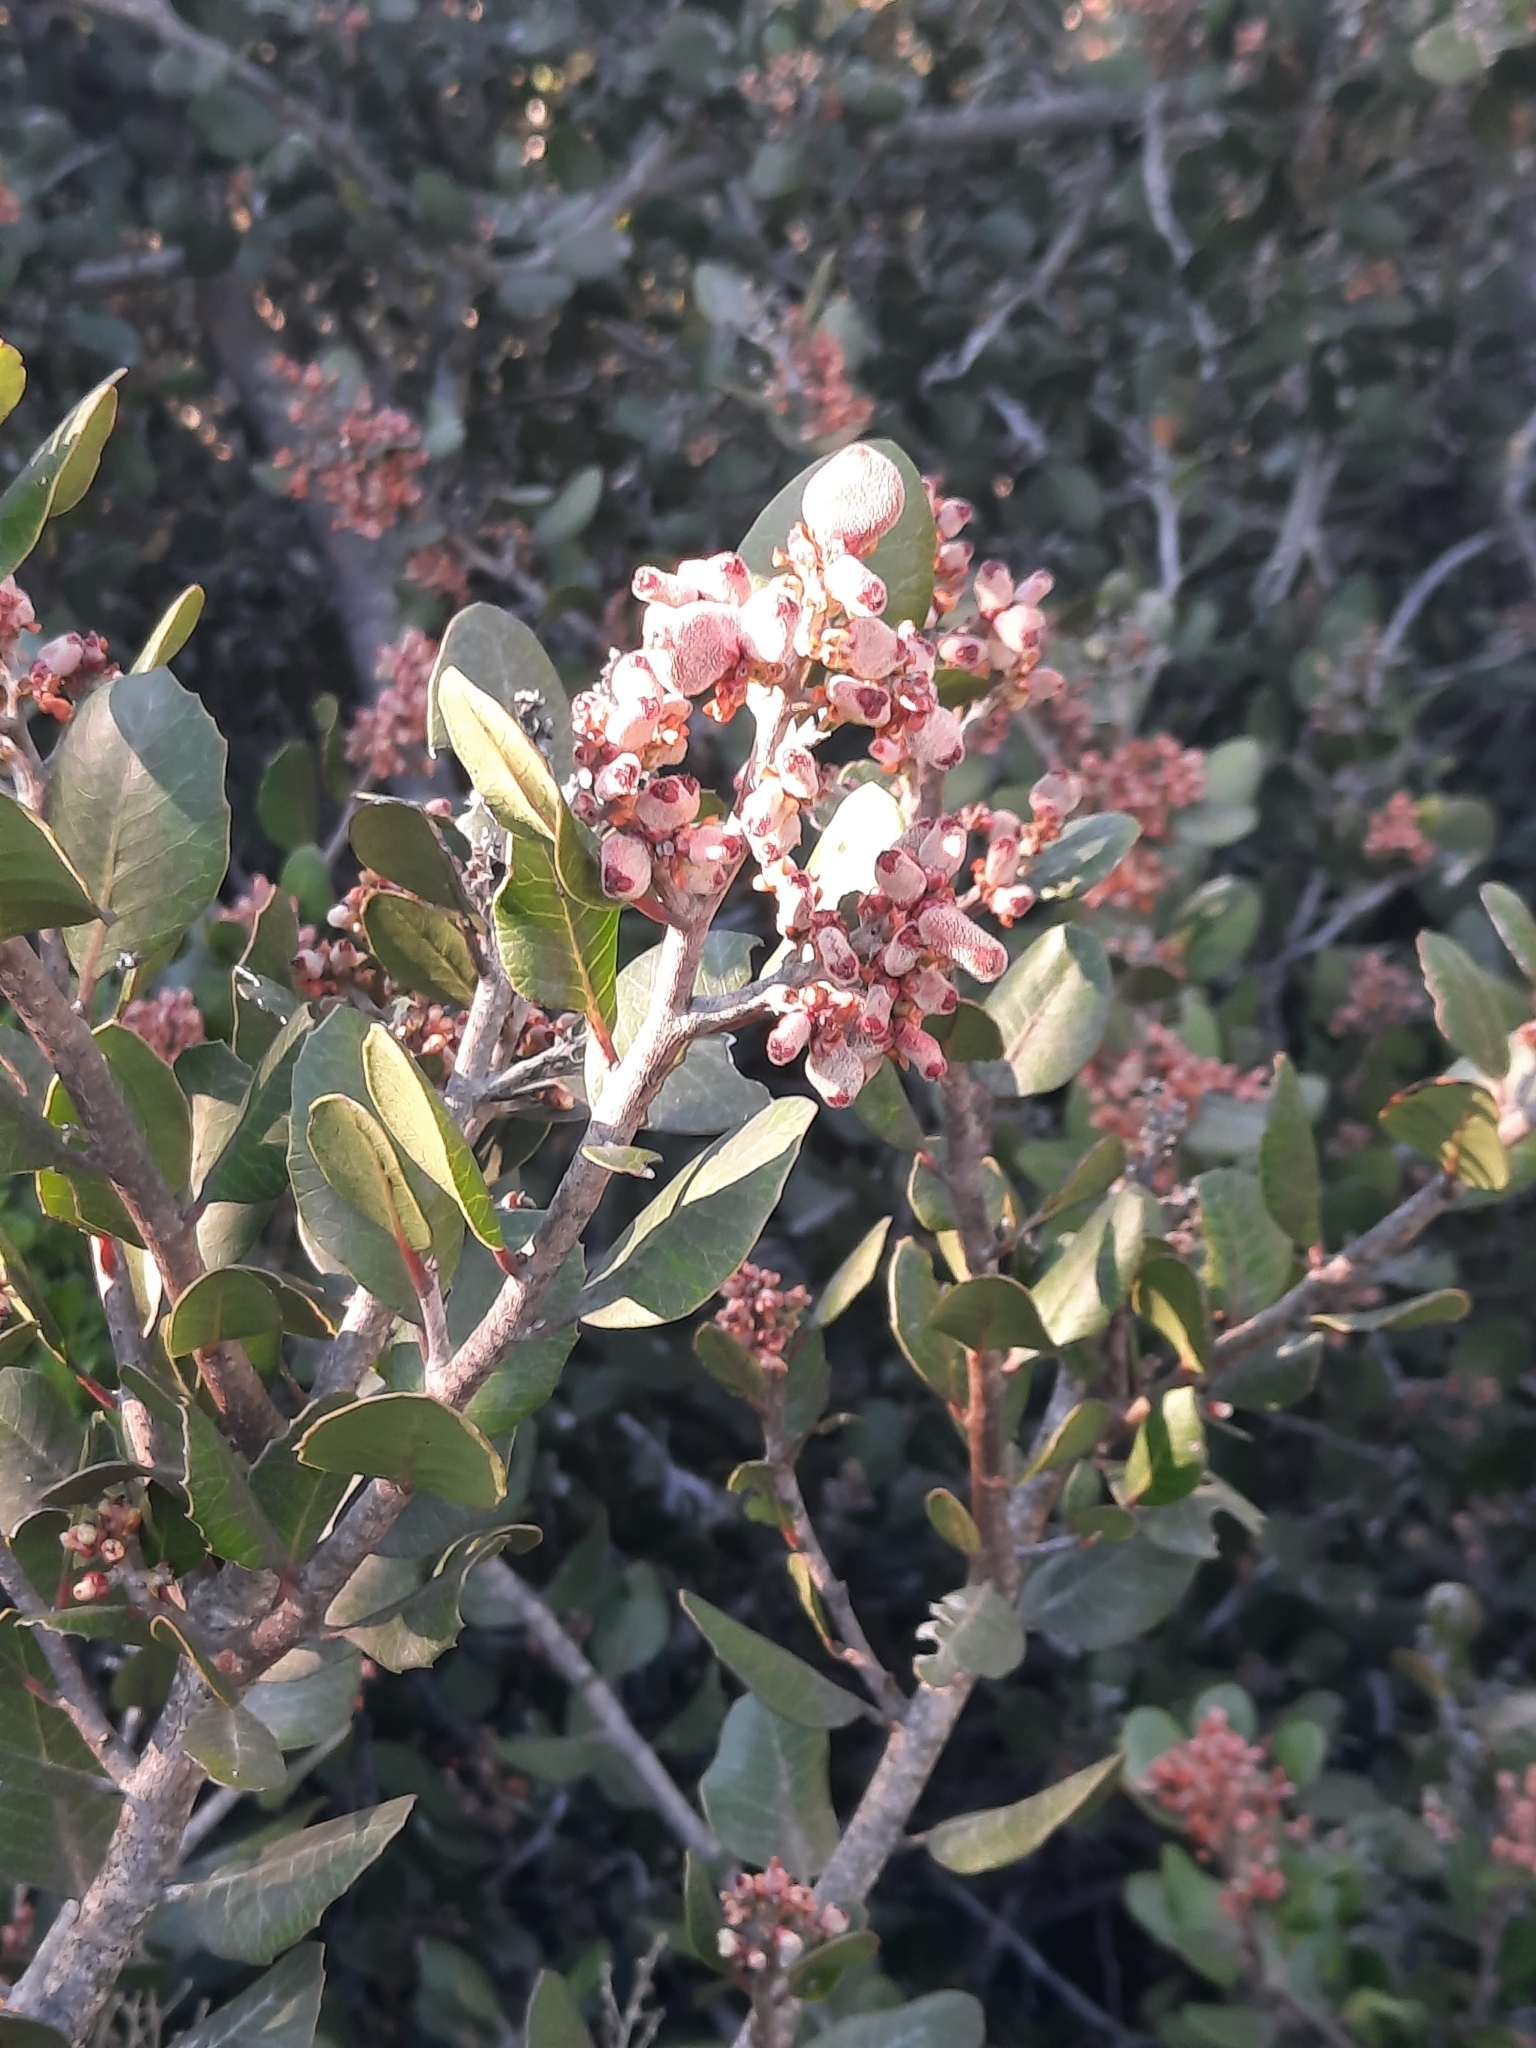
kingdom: Plantae
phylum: Tracheophyta
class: Magnoliopsida
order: Sapindales
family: Anacardiaceae
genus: Rhus
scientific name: Rhus integrifolia
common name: Lemonade sumac
